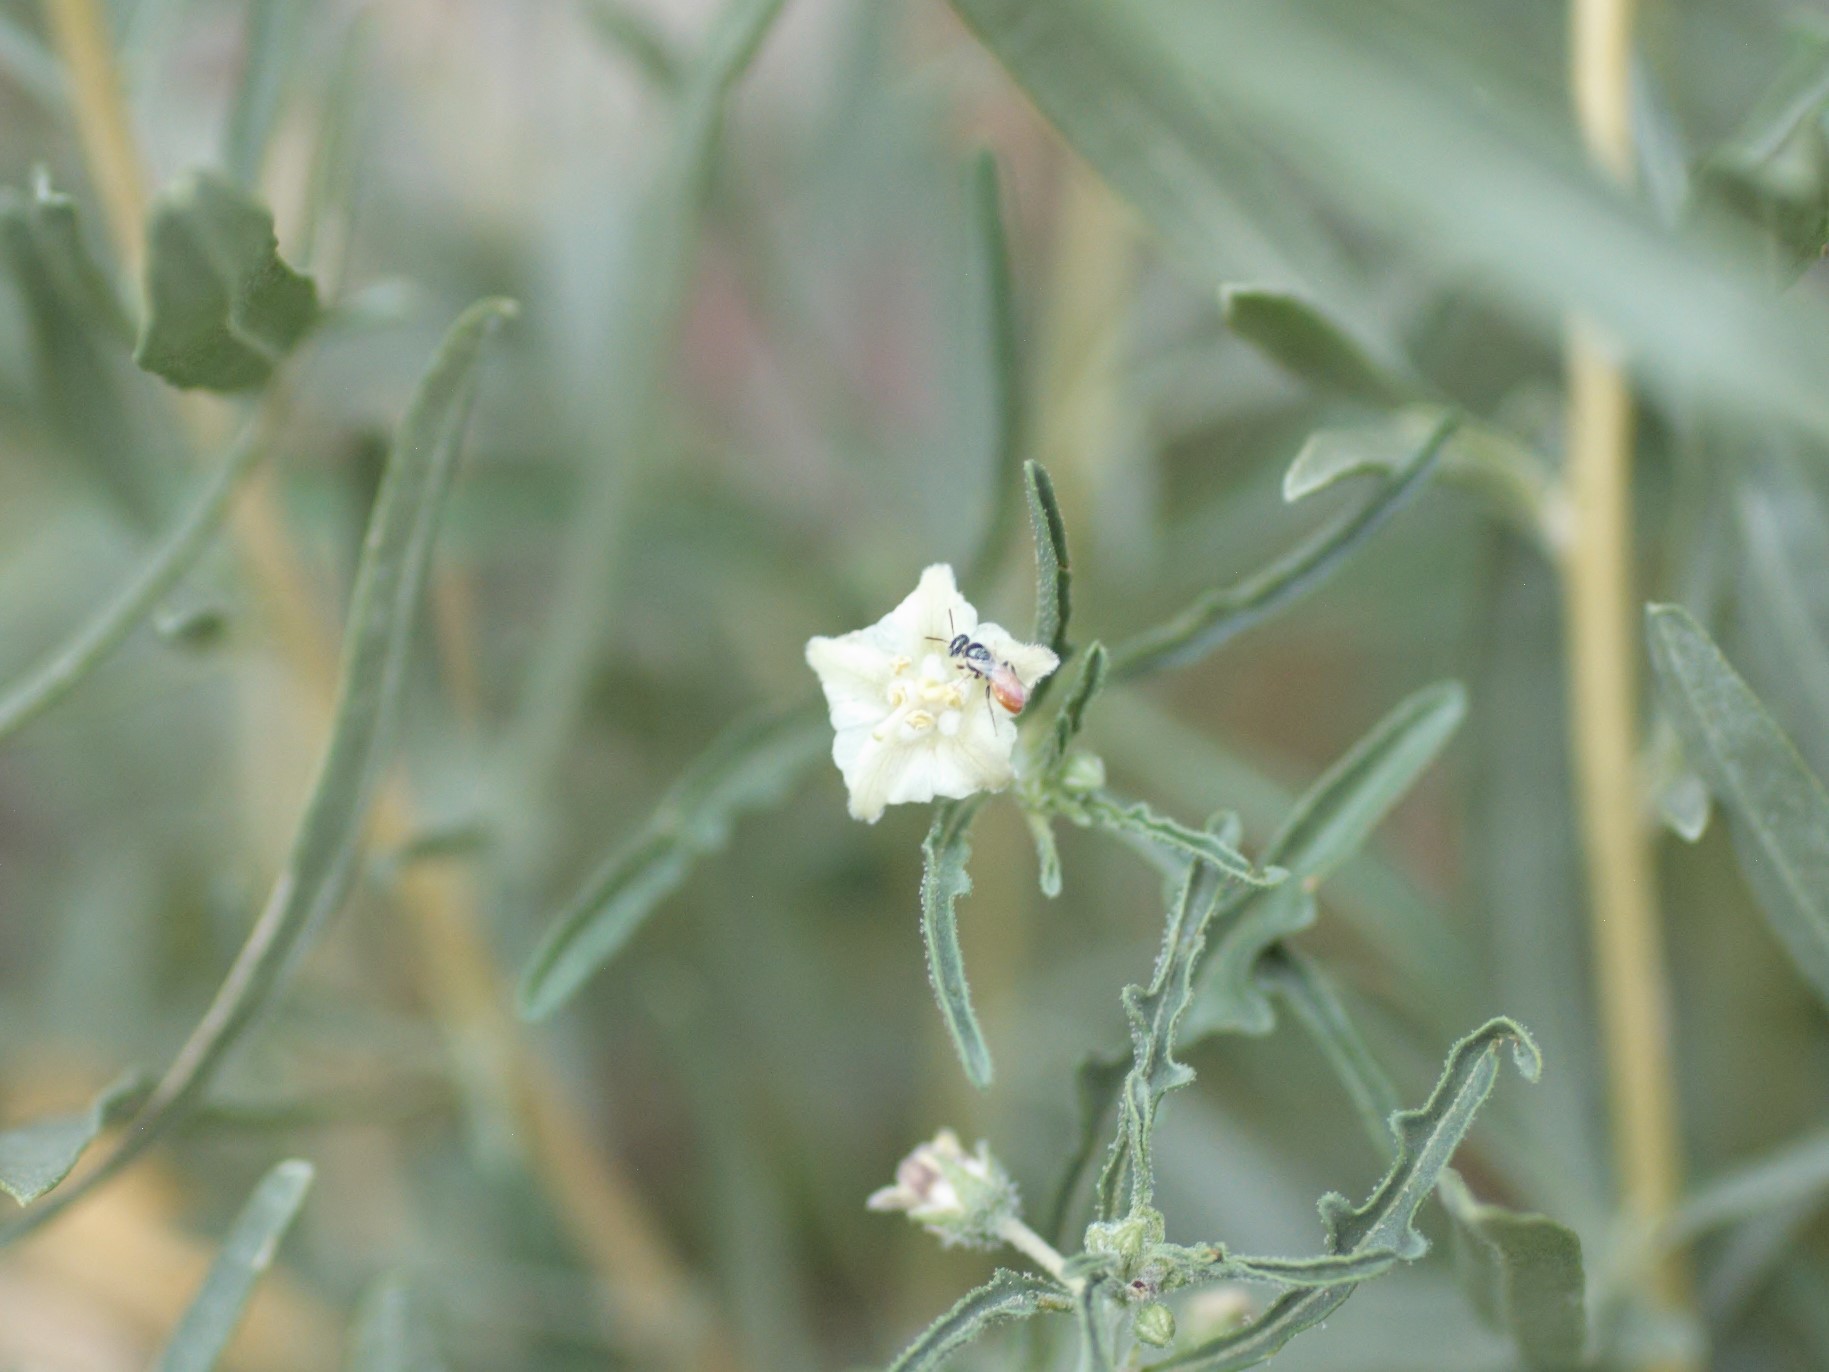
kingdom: Animalia
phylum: Arthropoda
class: Insecta
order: Hymenoptera
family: Andrenidae
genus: Perdita
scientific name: Perdita chamaesarachae
